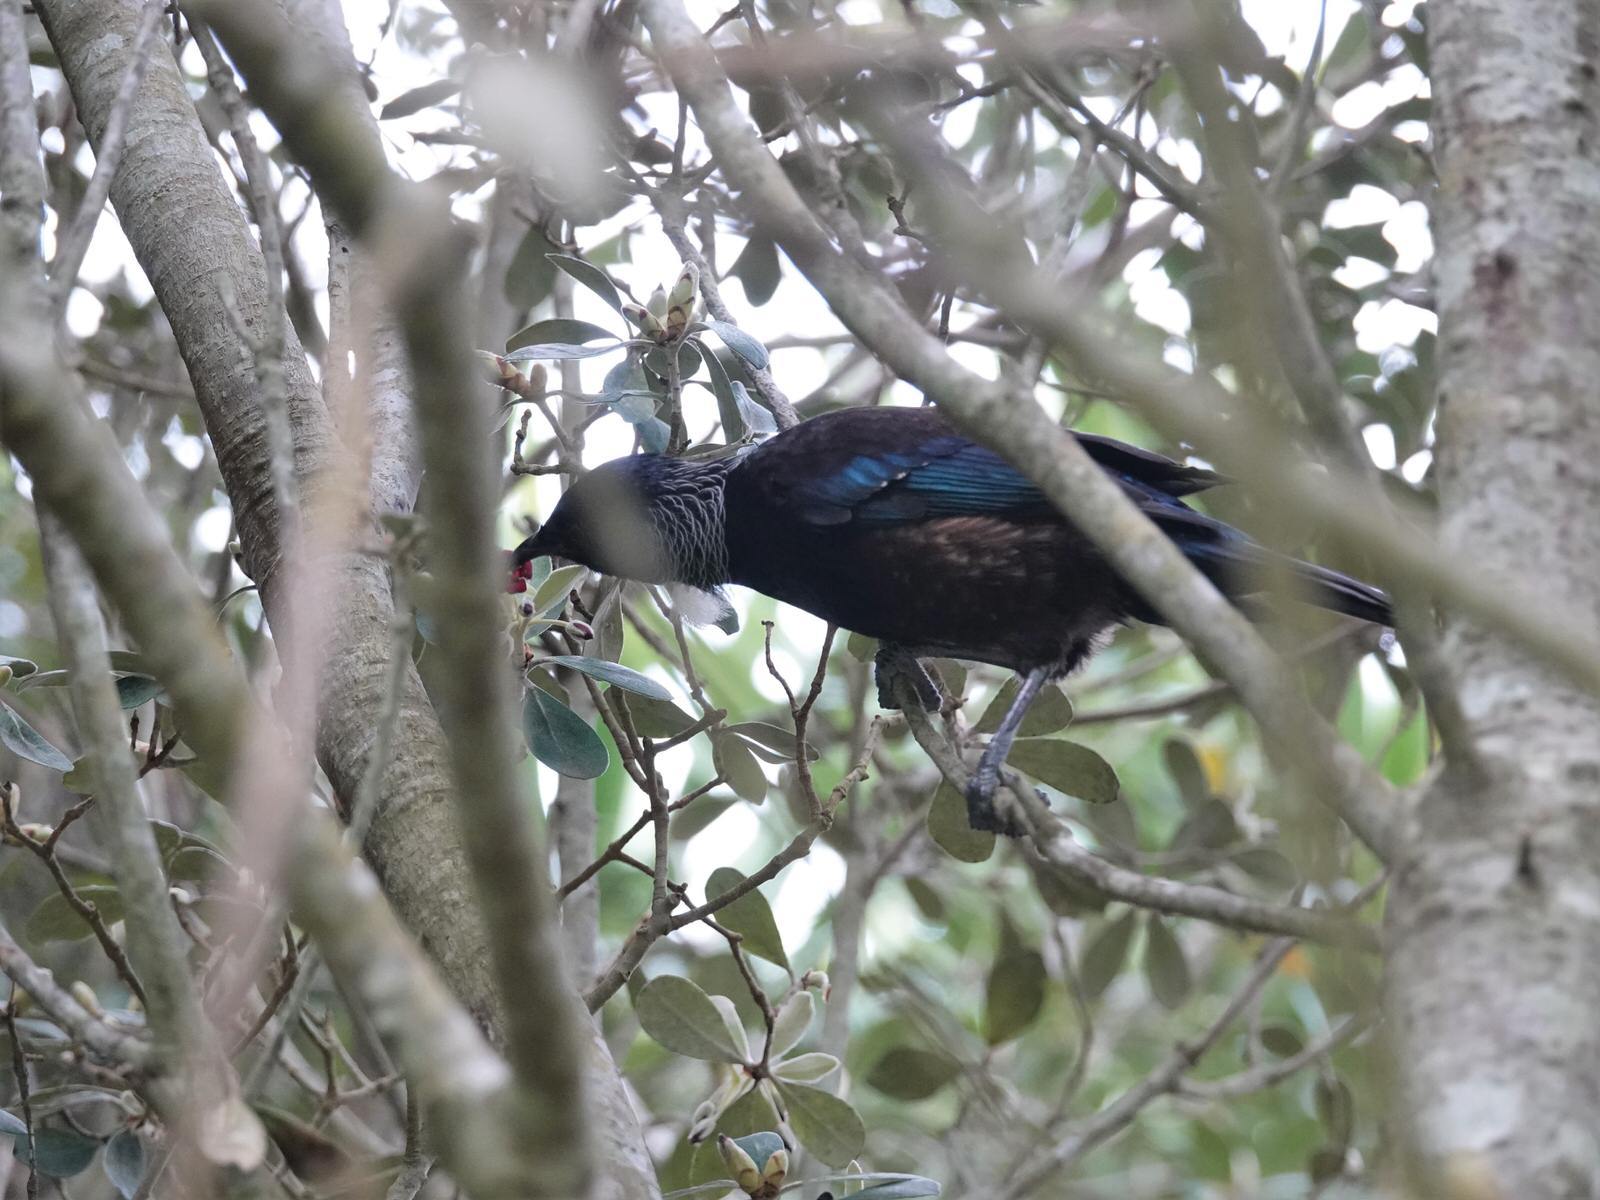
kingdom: Animalia
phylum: Chordata
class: Aves
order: Passeriformes
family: Meliphagidae
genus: Prosthemadera
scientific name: Prosthemadera novaeseelandiae
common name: Tui
